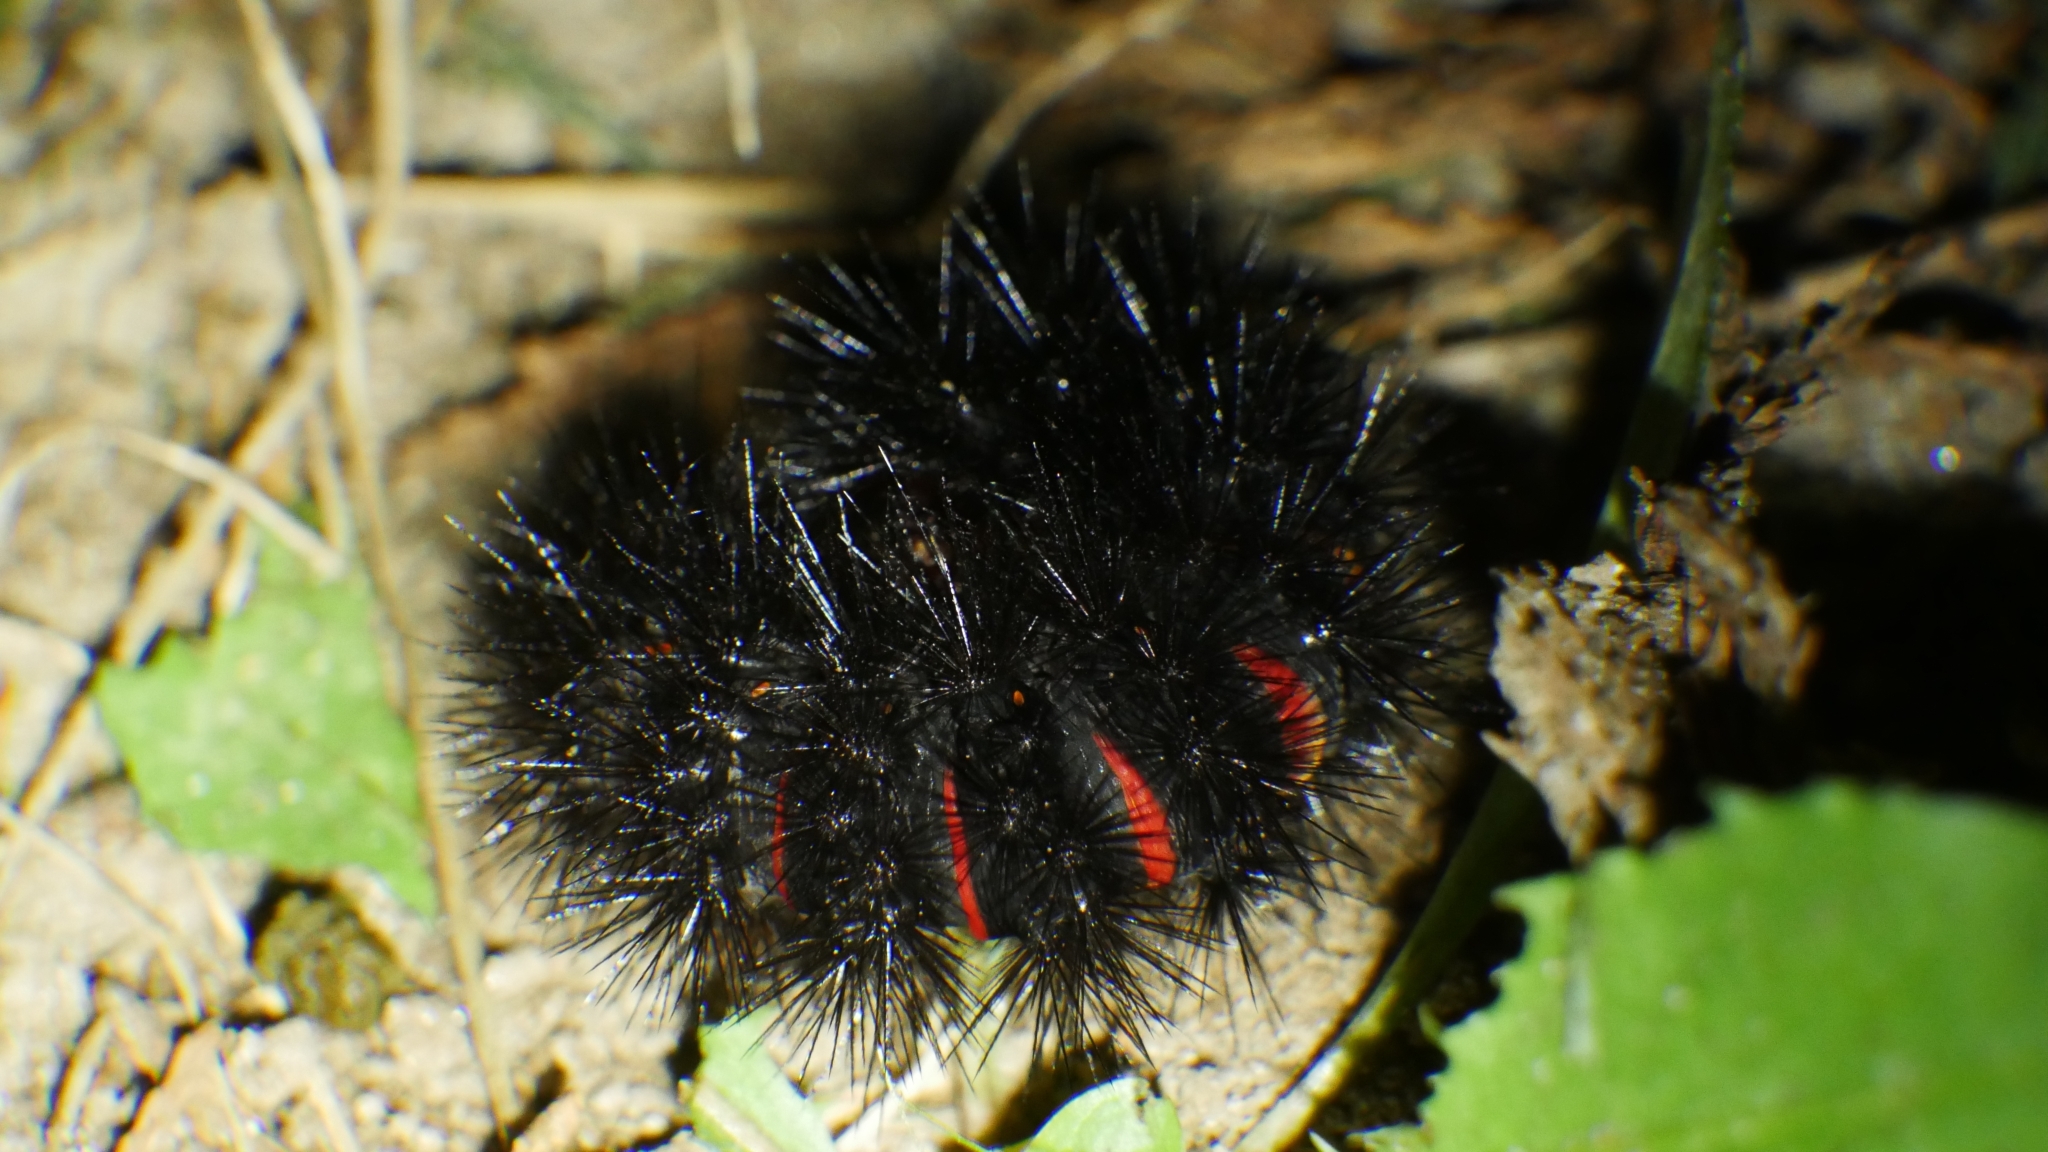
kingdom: Animalia
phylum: Arthropoda
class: Insecta
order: Lepidoptera
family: Erebidae
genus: Hypercompe
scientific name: Hypercompe scribonia
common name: Giant leopard moth
